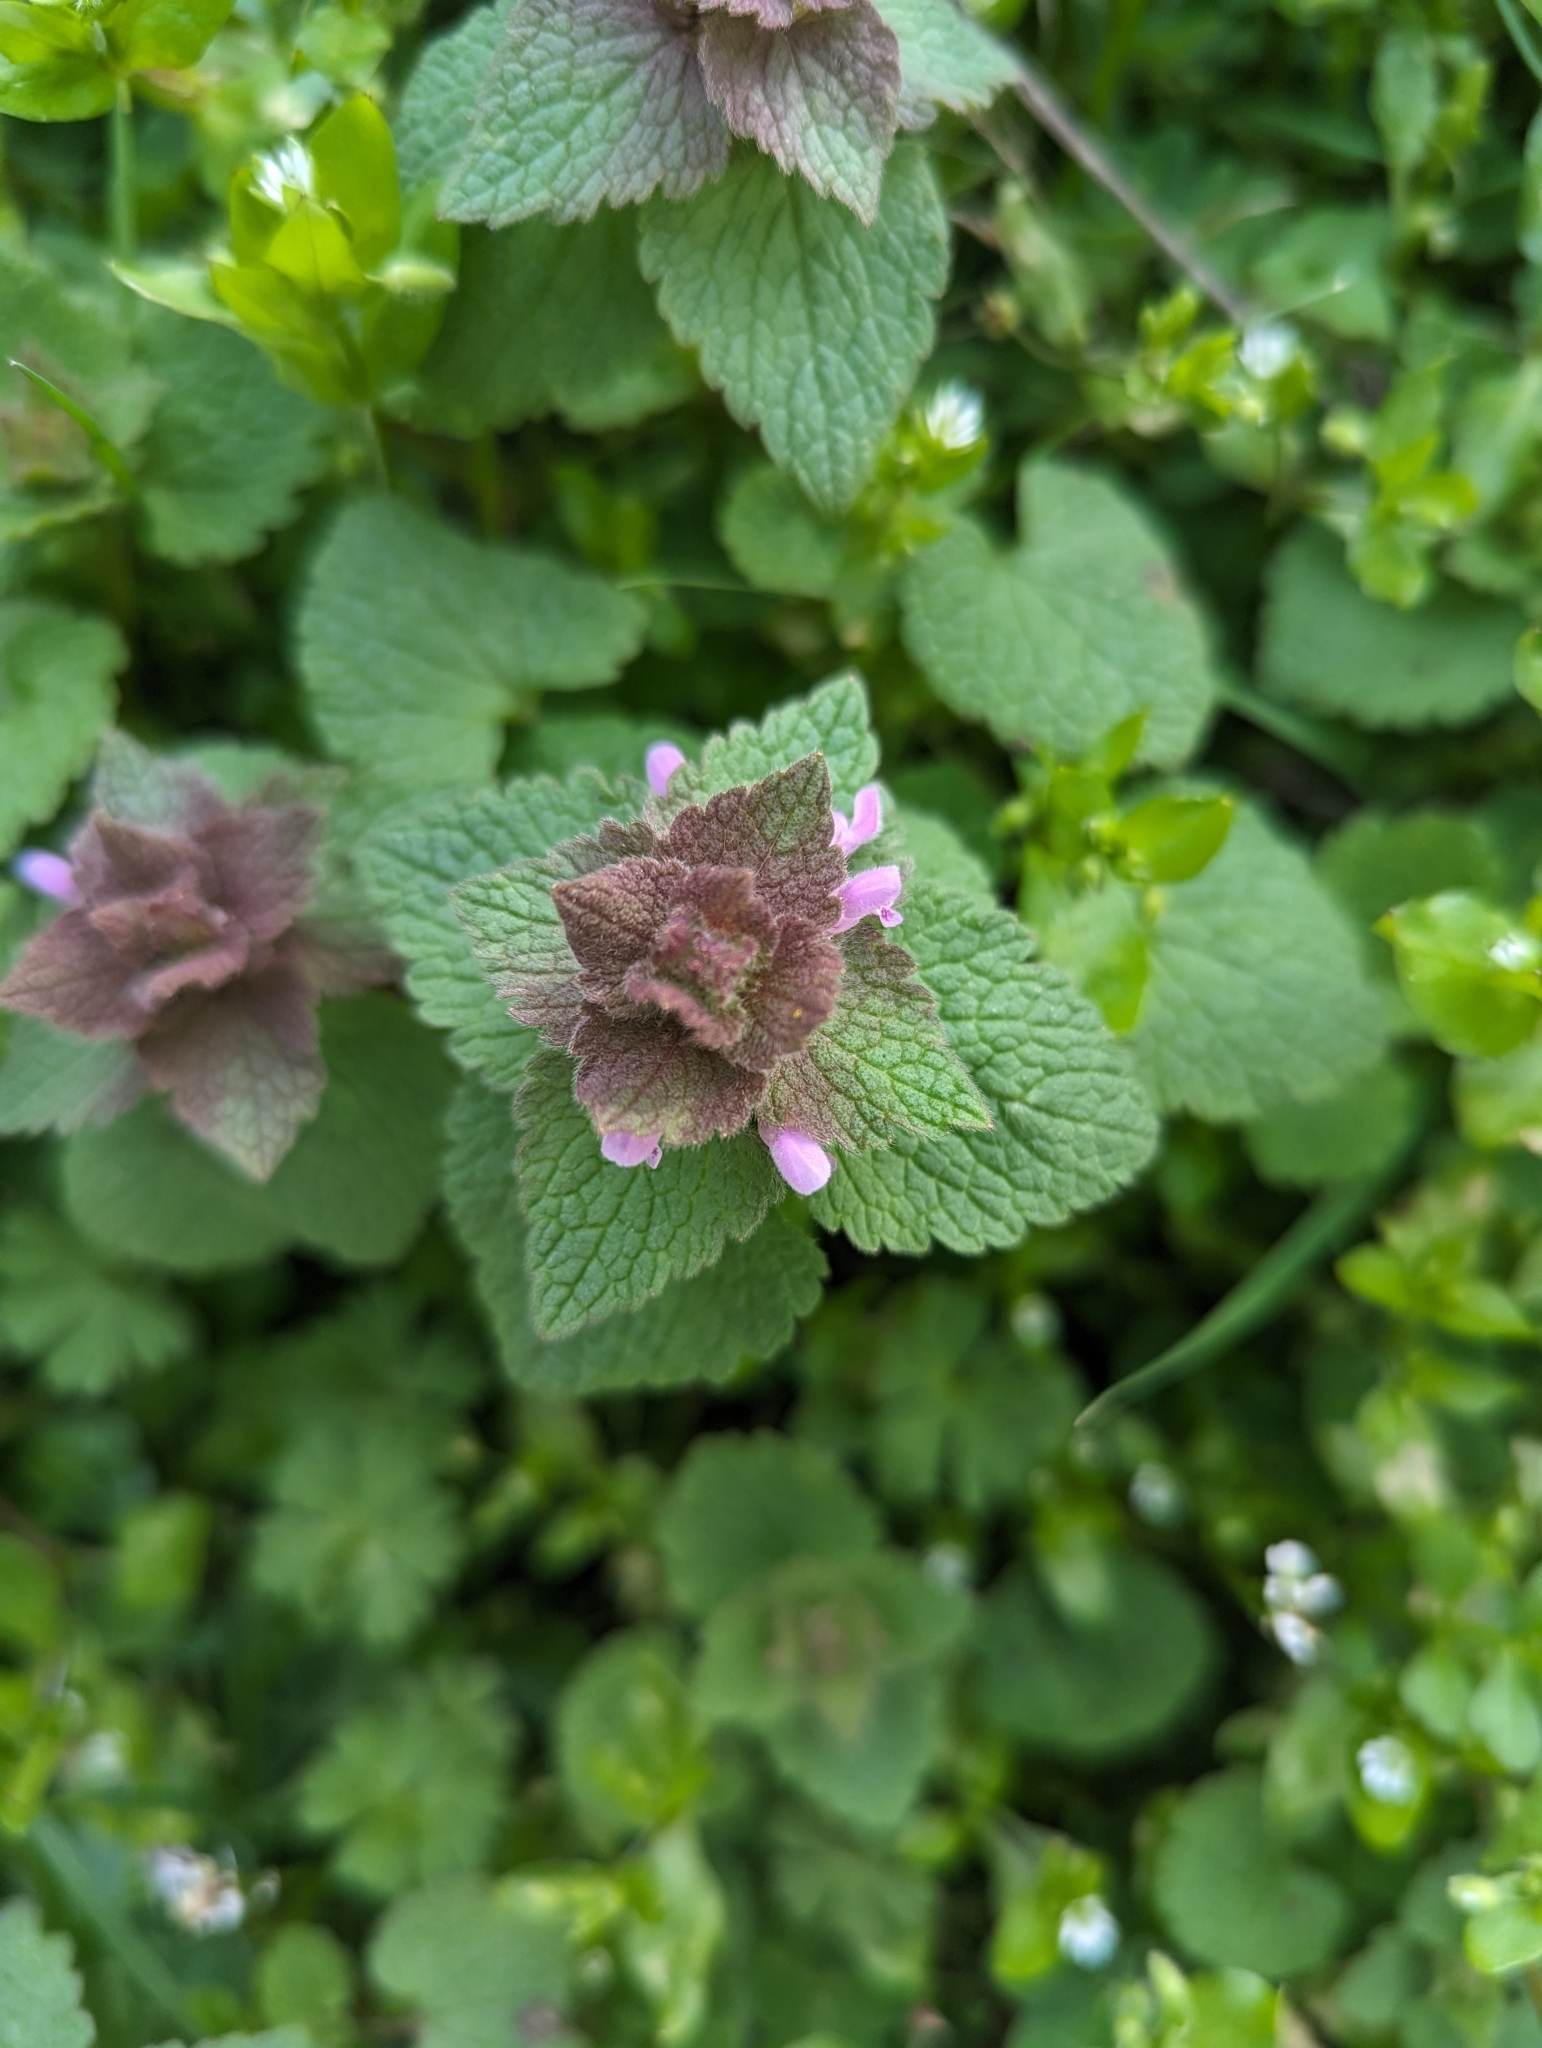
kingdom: Plantae
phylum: Tracheophyta
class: Magnoliopsida
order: Lamiales
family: Lamiaceae
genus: Lamium
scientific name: Lamium purpureum
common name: Red dead-nettle
